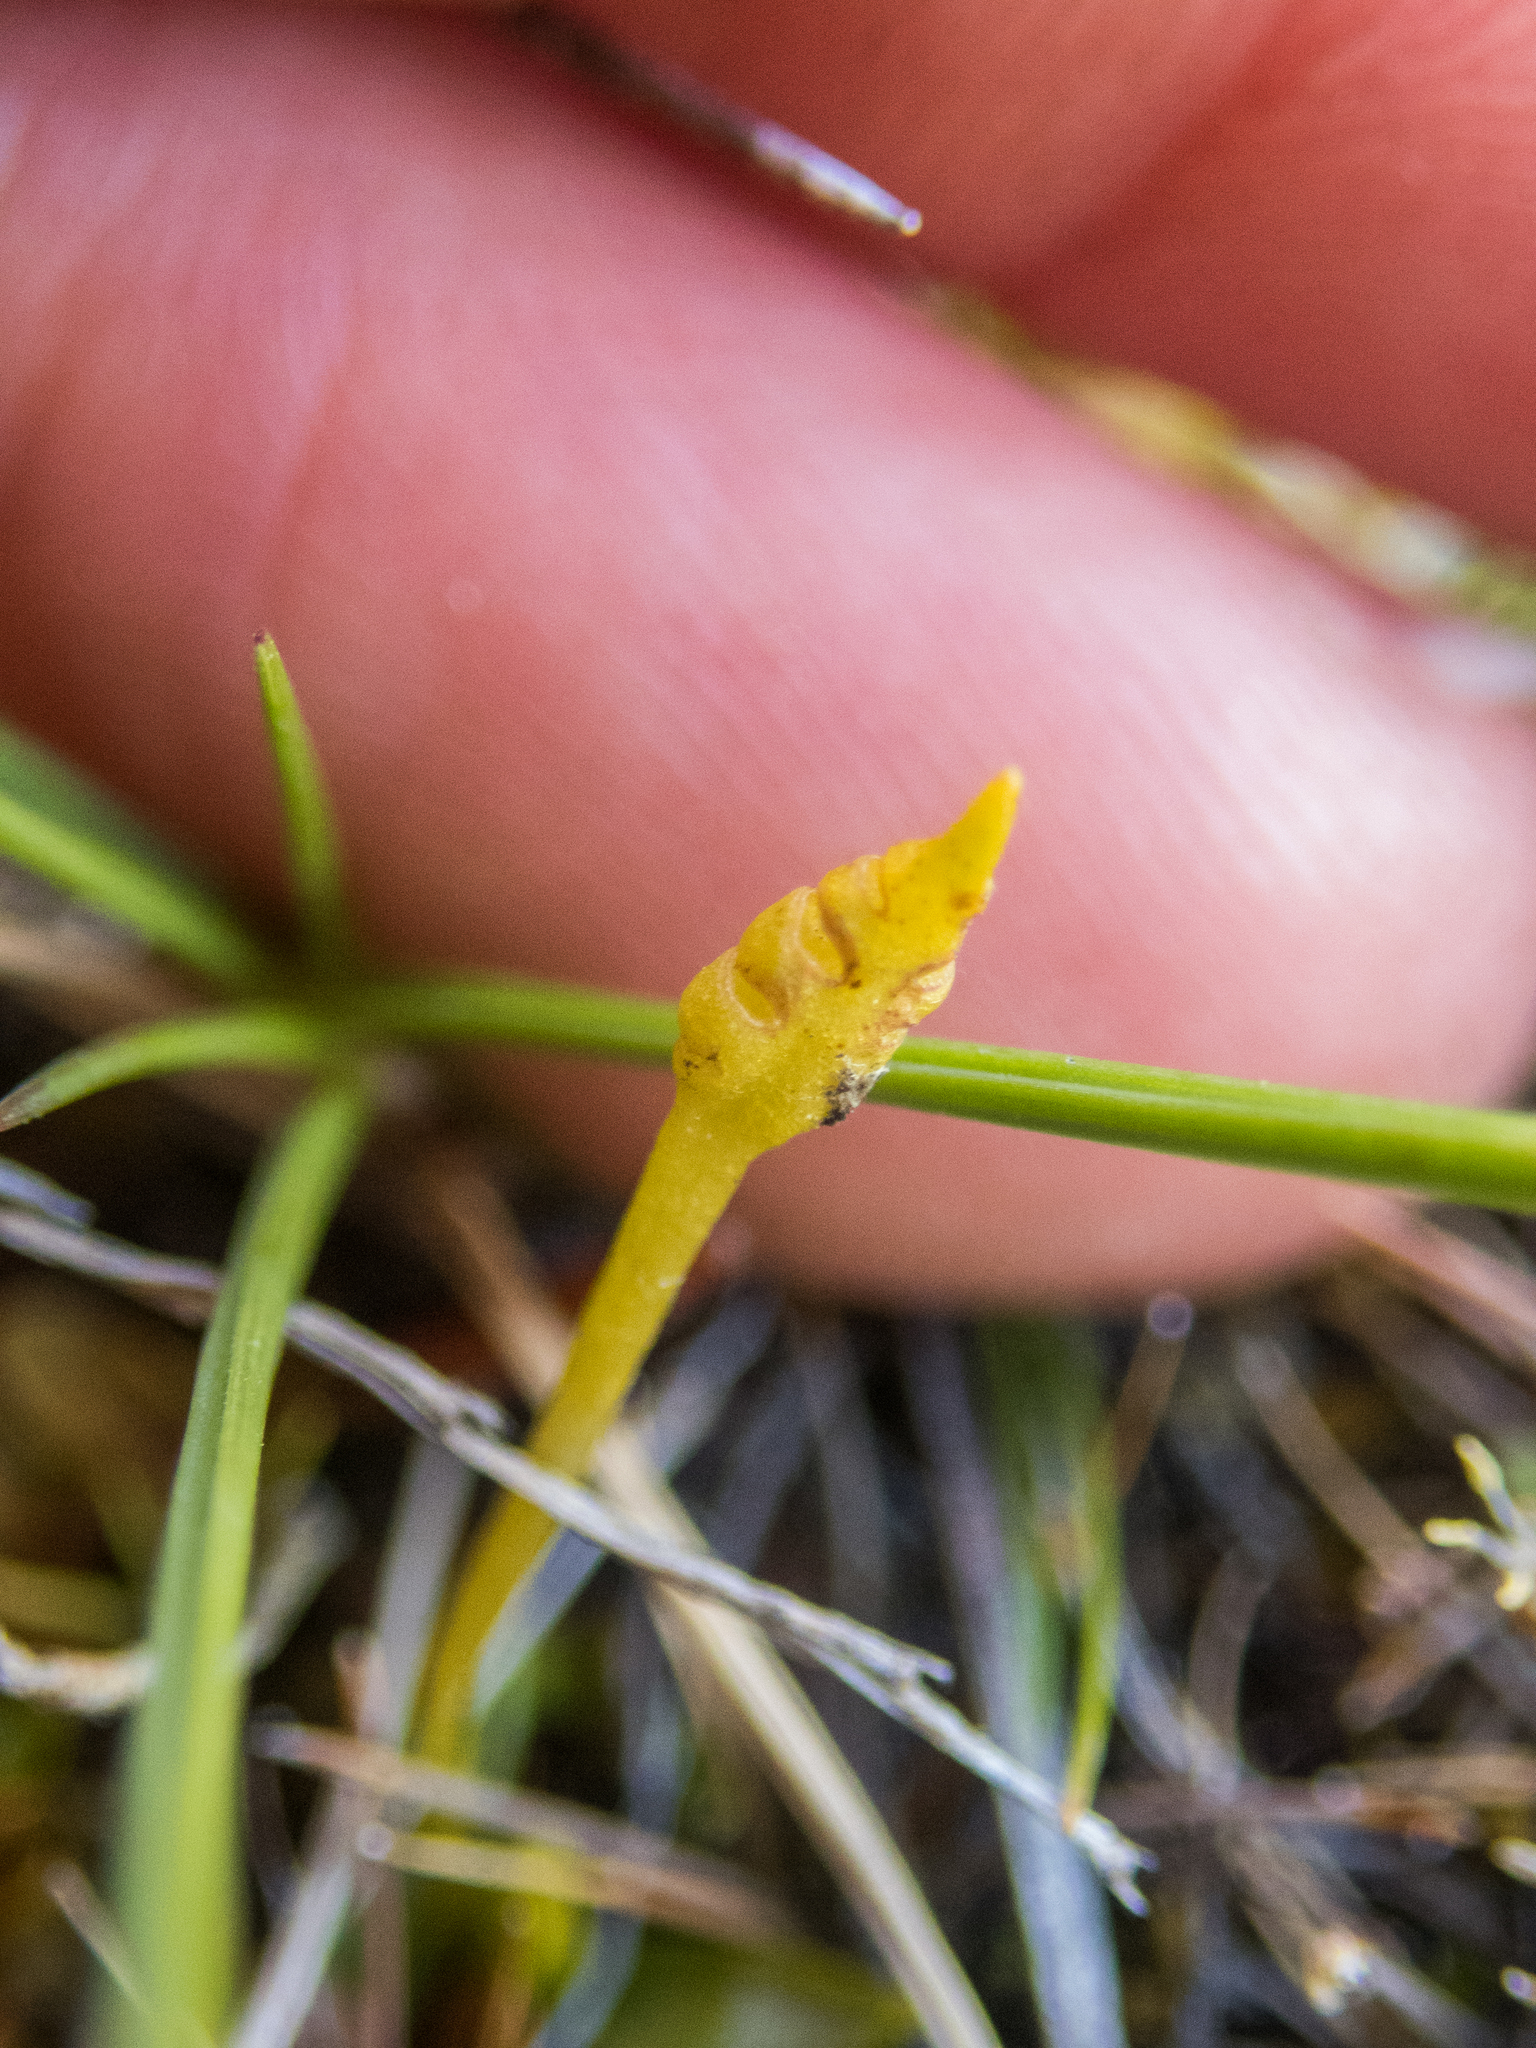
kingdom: Plantae
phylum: Tracheophyta
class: Polypodiopsida
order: Ophioglossales
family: Ophioglossaceae
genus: Ophioglossum
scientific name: Ophioglossum coriaceum
